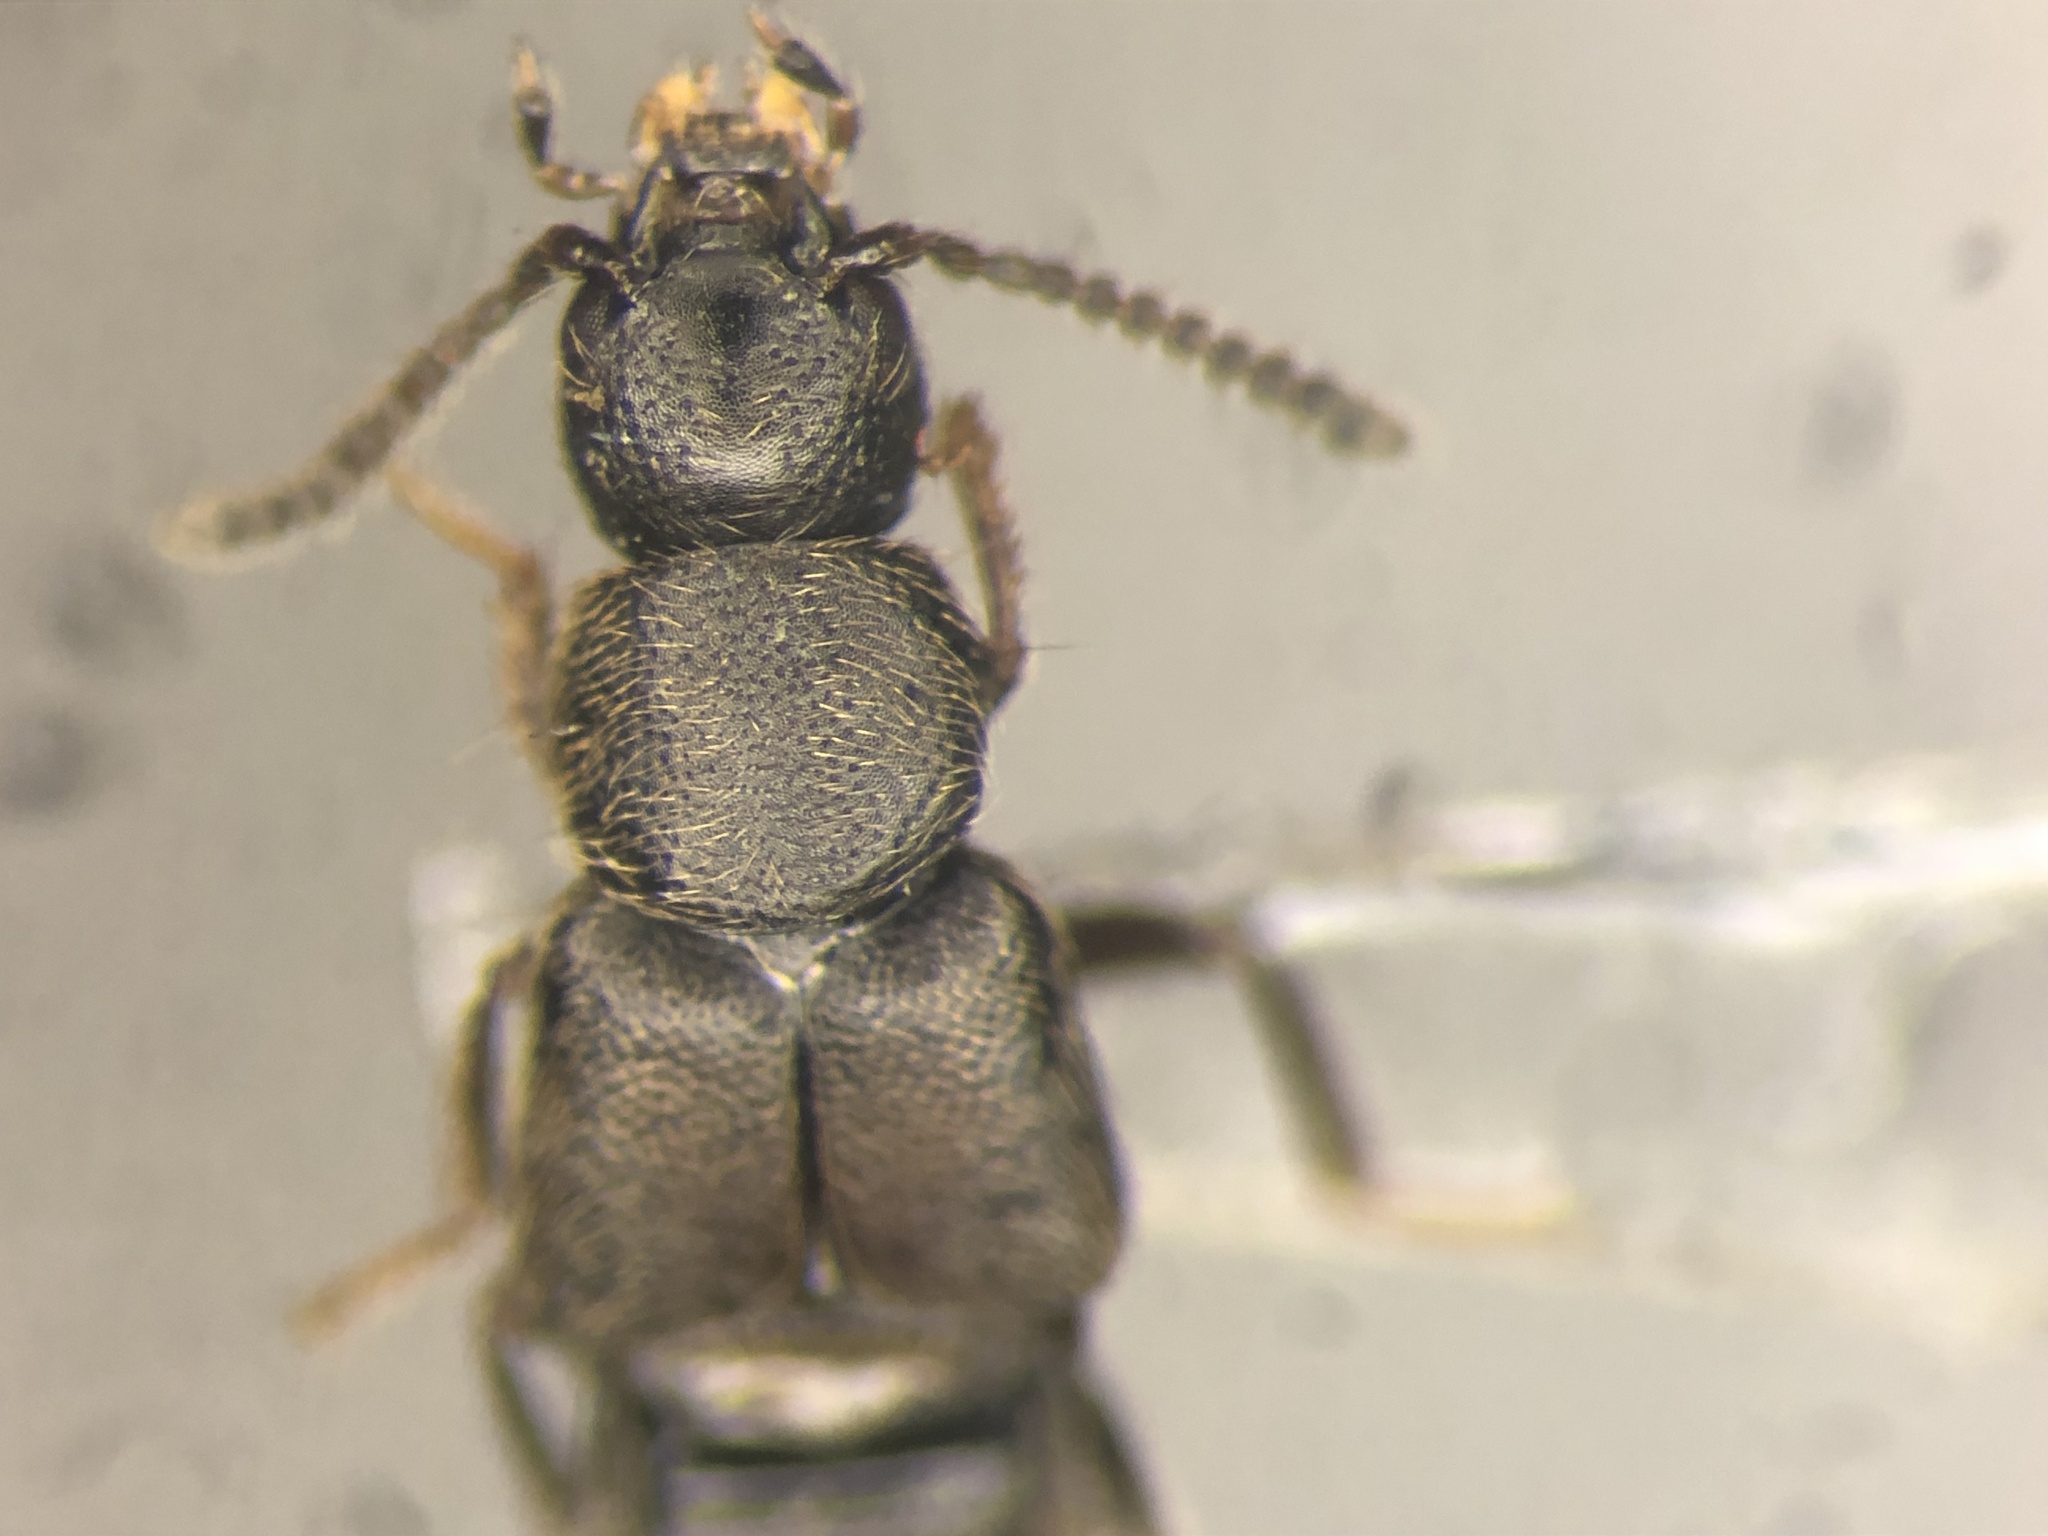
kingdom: Animalia
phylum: Arthropoda
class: Insecta
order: Coleoptera
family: Staphylinidae
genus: Aleochara
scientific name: Aleochara obscurella
